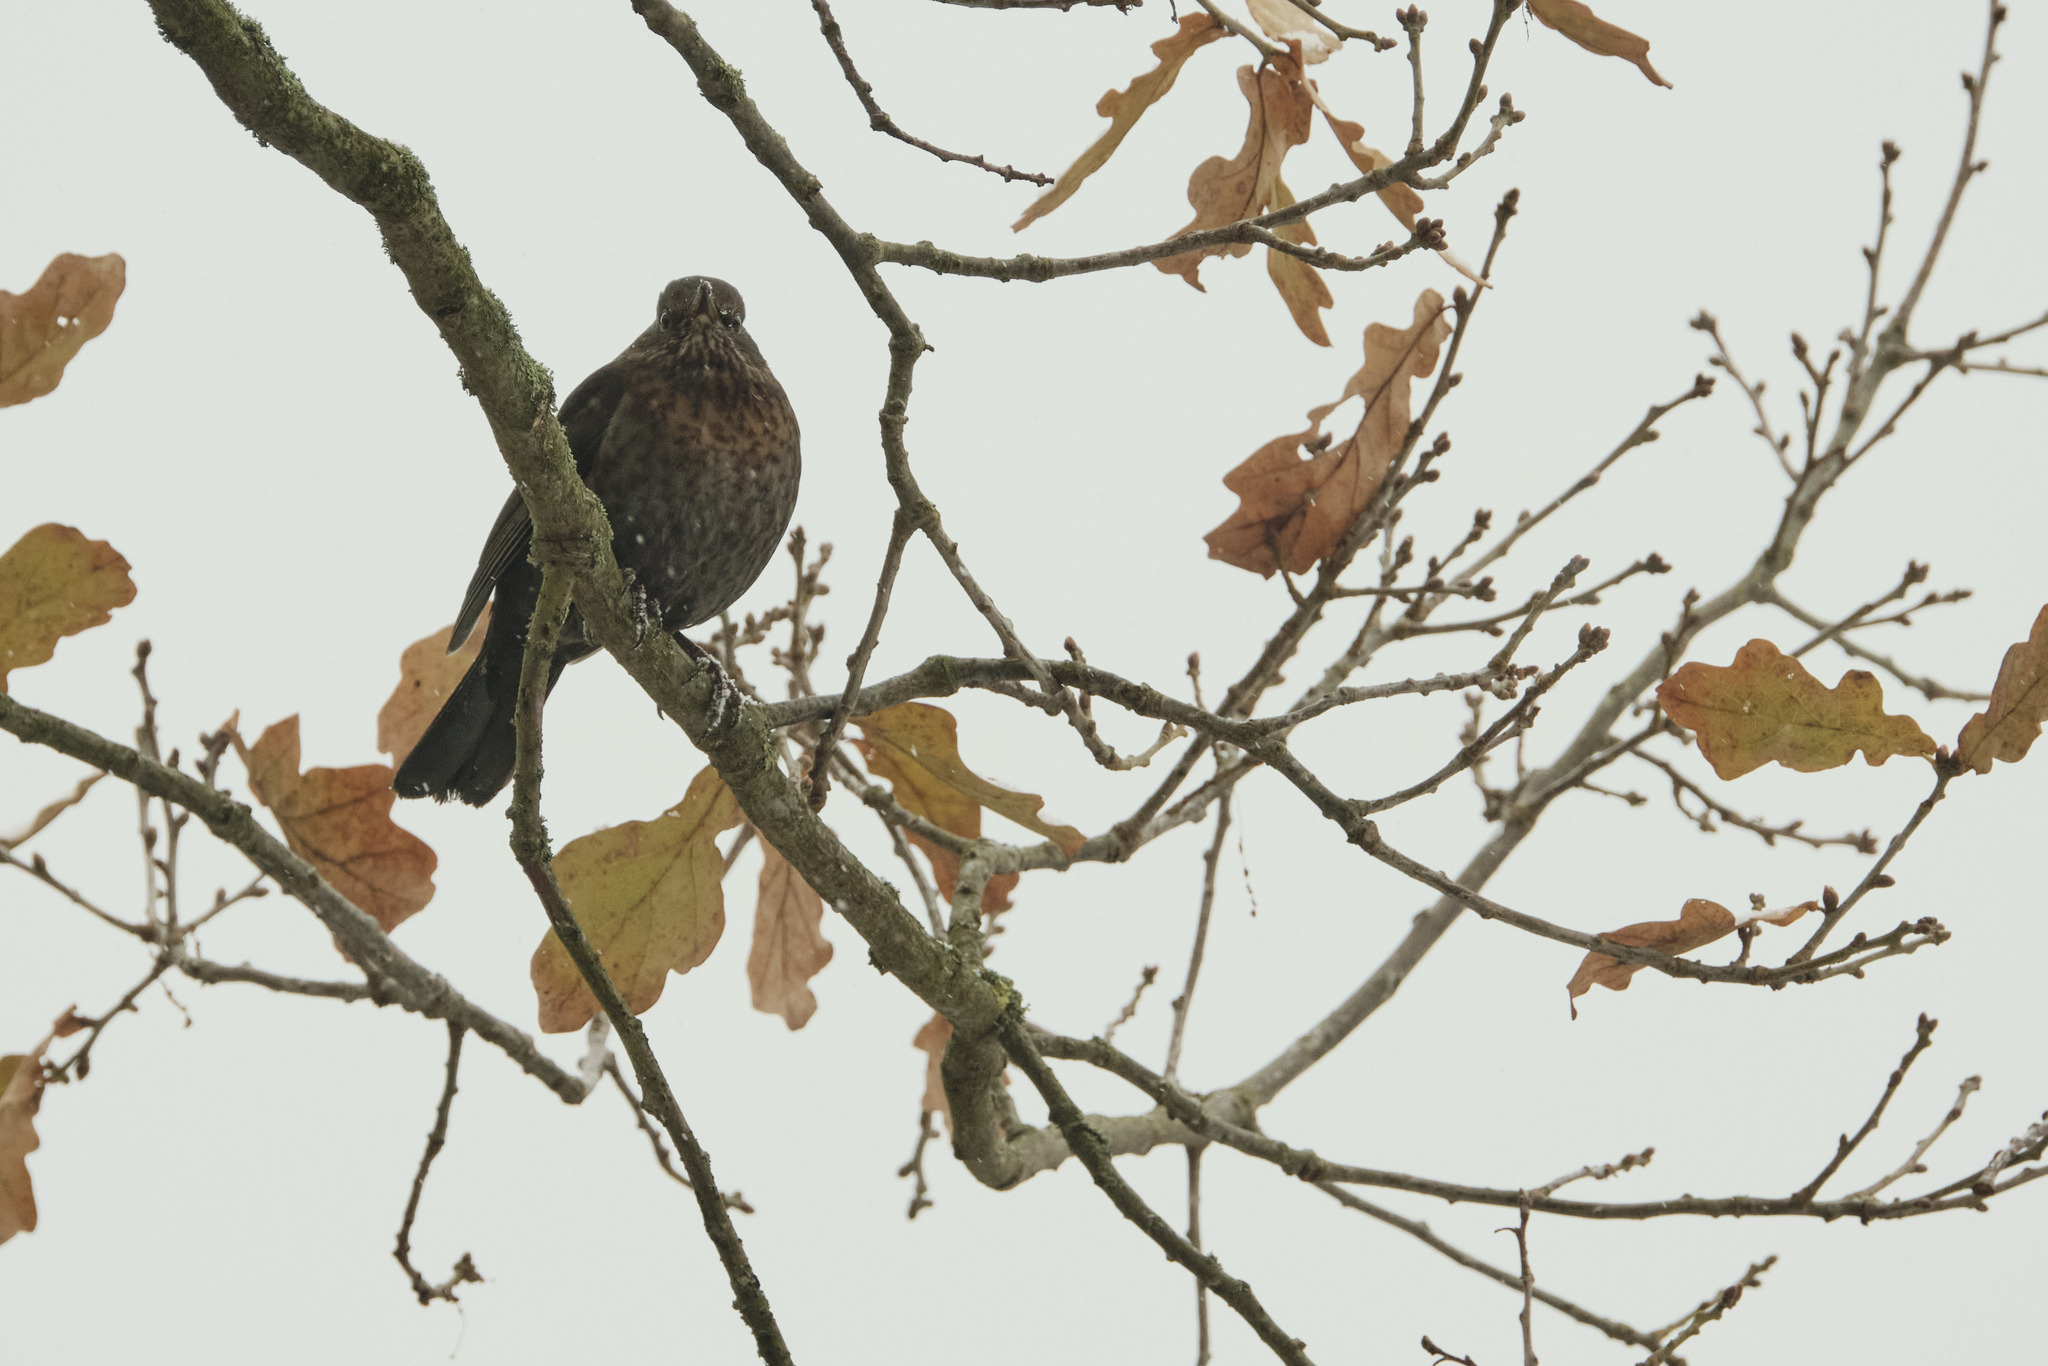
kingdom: Animalia
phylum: Chordata
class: Aves
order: Passeriformes
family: Turdidae
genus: Turdus
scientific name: Turdus merula
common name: Common blackbird
